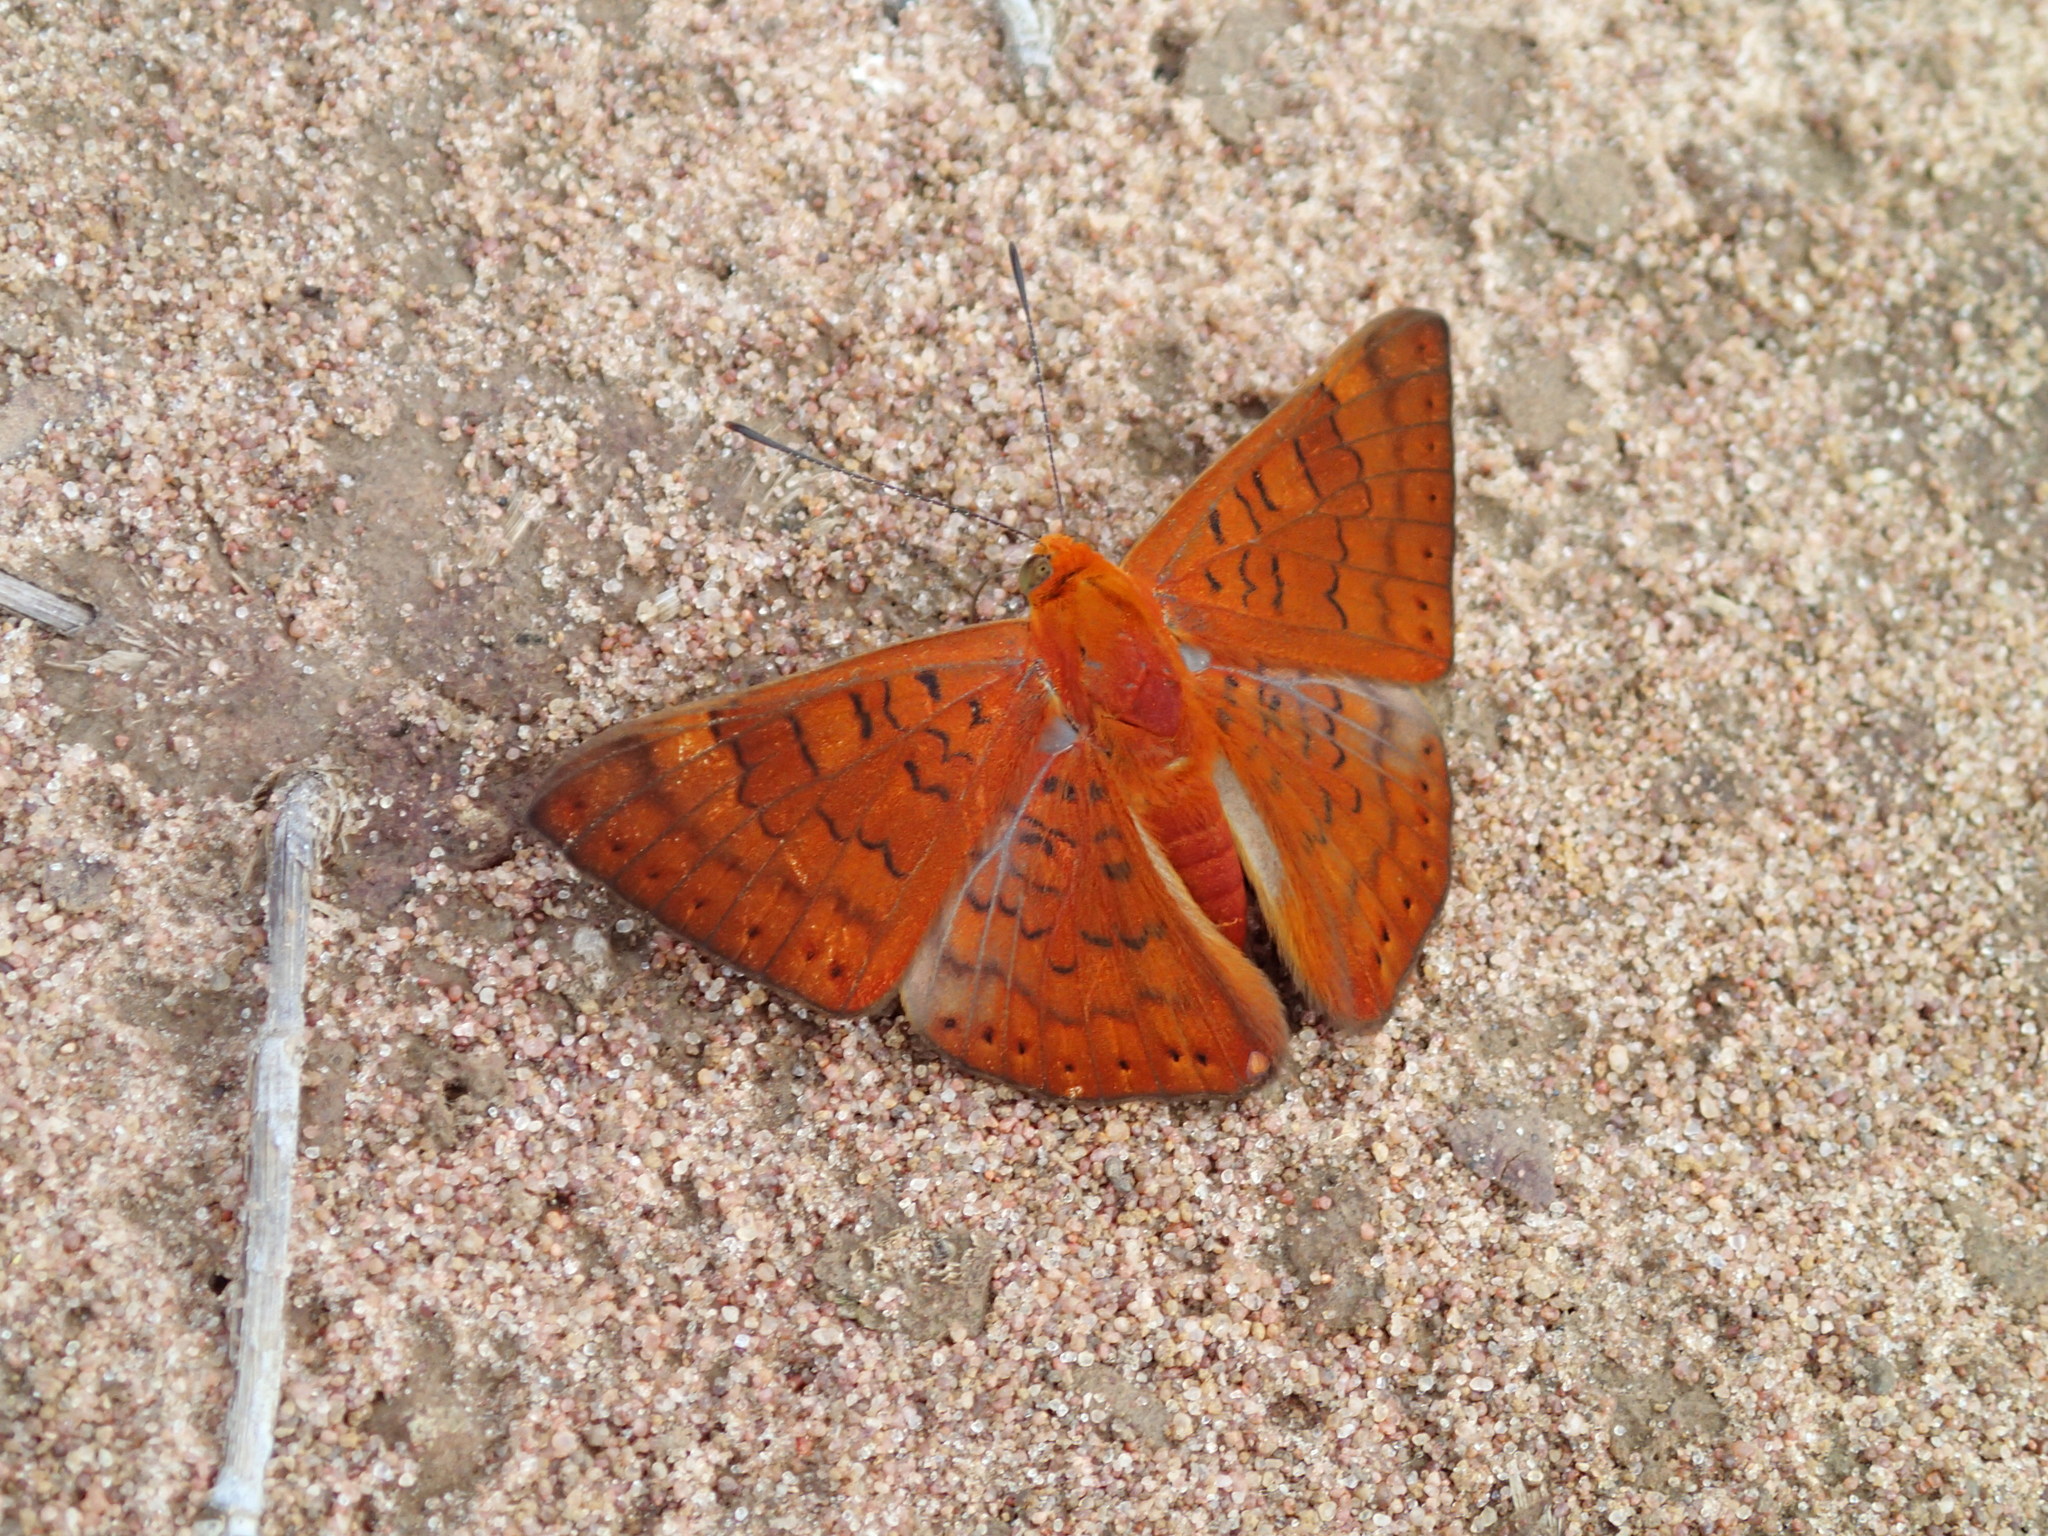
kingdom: Animalia
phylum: Arthropoda
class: Insecta
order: Lepidoptera
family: Lycaenidae
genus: Emesis
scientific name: Emesis russula
